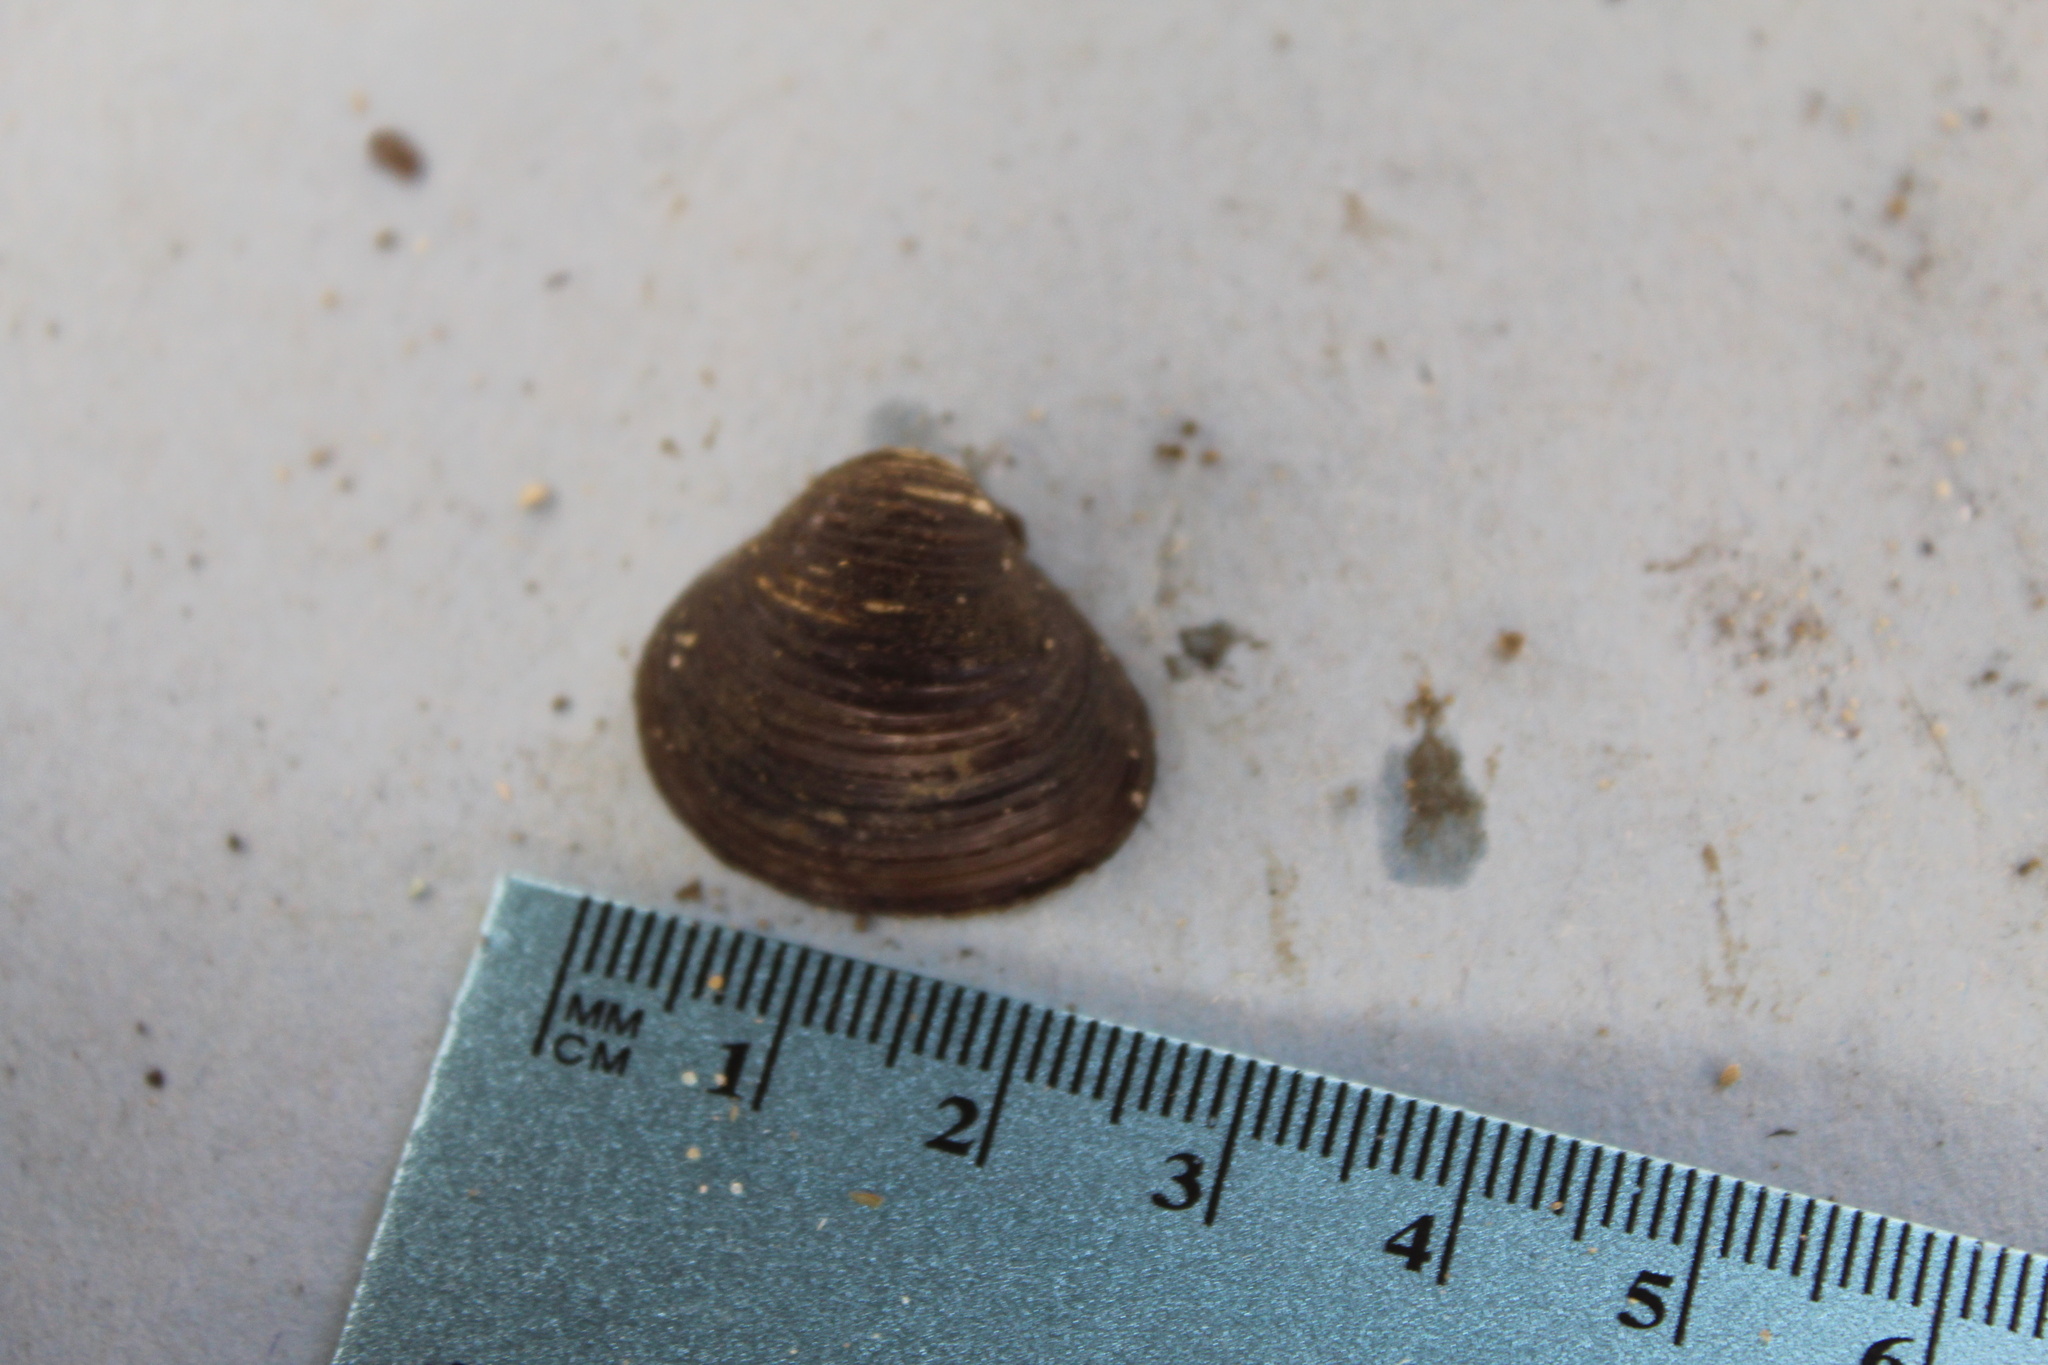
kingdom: Animalia
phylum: Mollusca
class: Bivalvia
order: Venerida
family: Cyrenidae
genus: Corbicula
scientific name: Corbicula fluminea
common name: Asian clam
